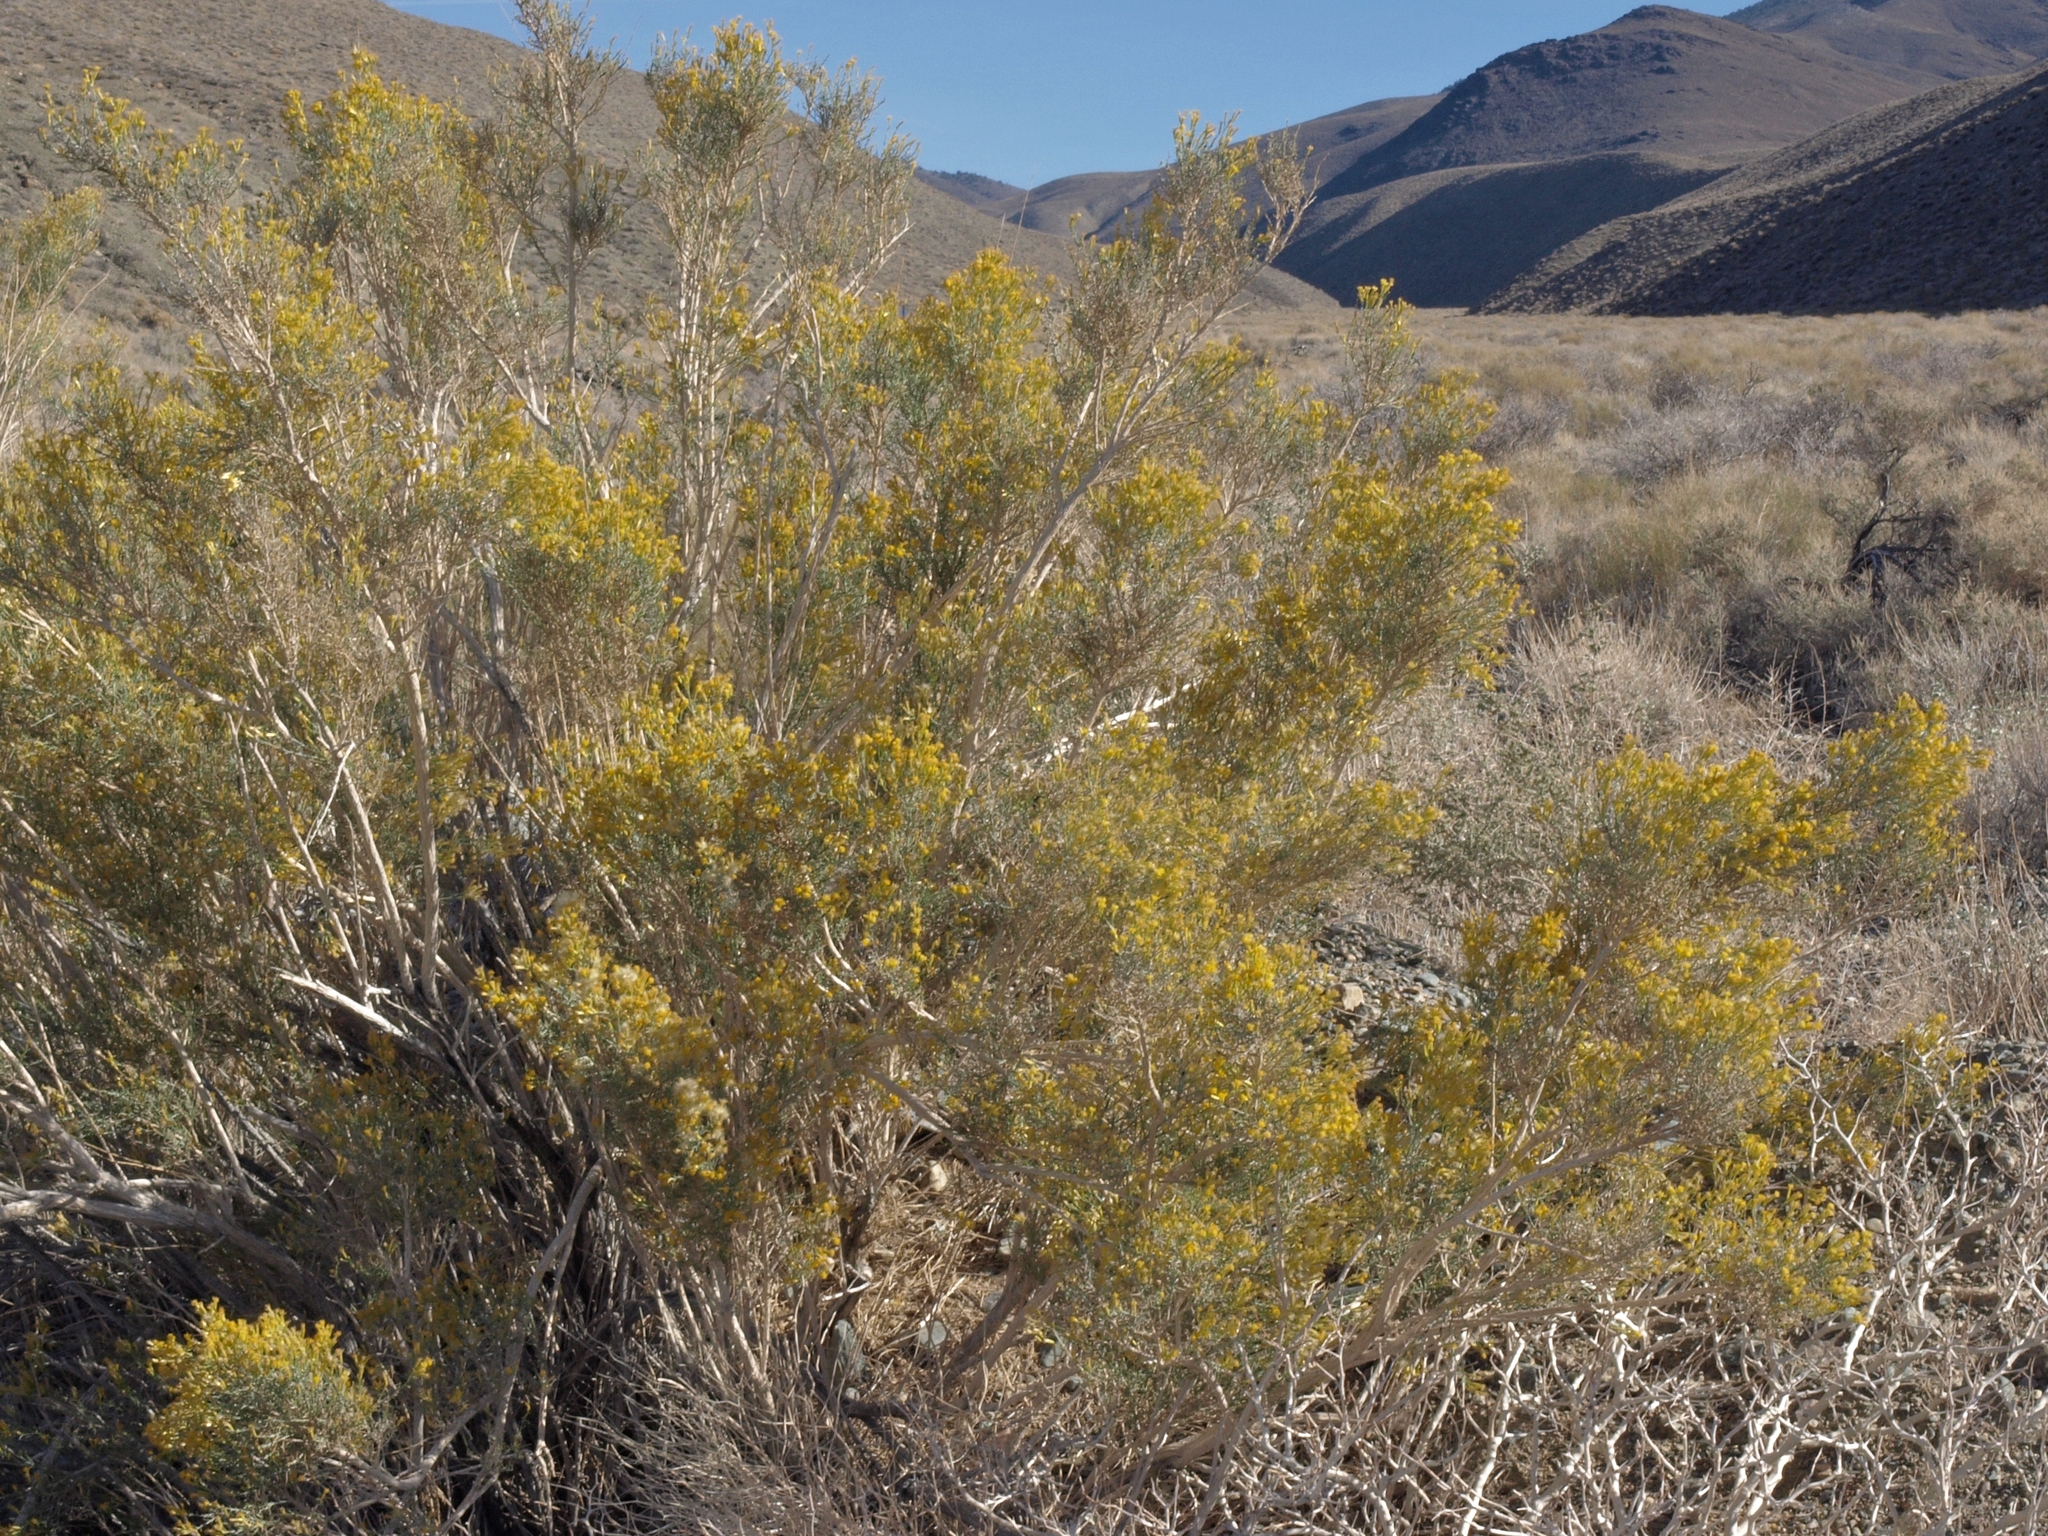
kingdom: Plantae
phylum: Tracheophyta
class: Magnoliopsida
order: Asterales
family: Asteraceae
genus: Ericameria
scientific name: Ericameria paniculata
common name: Punctate rabbitbrush
